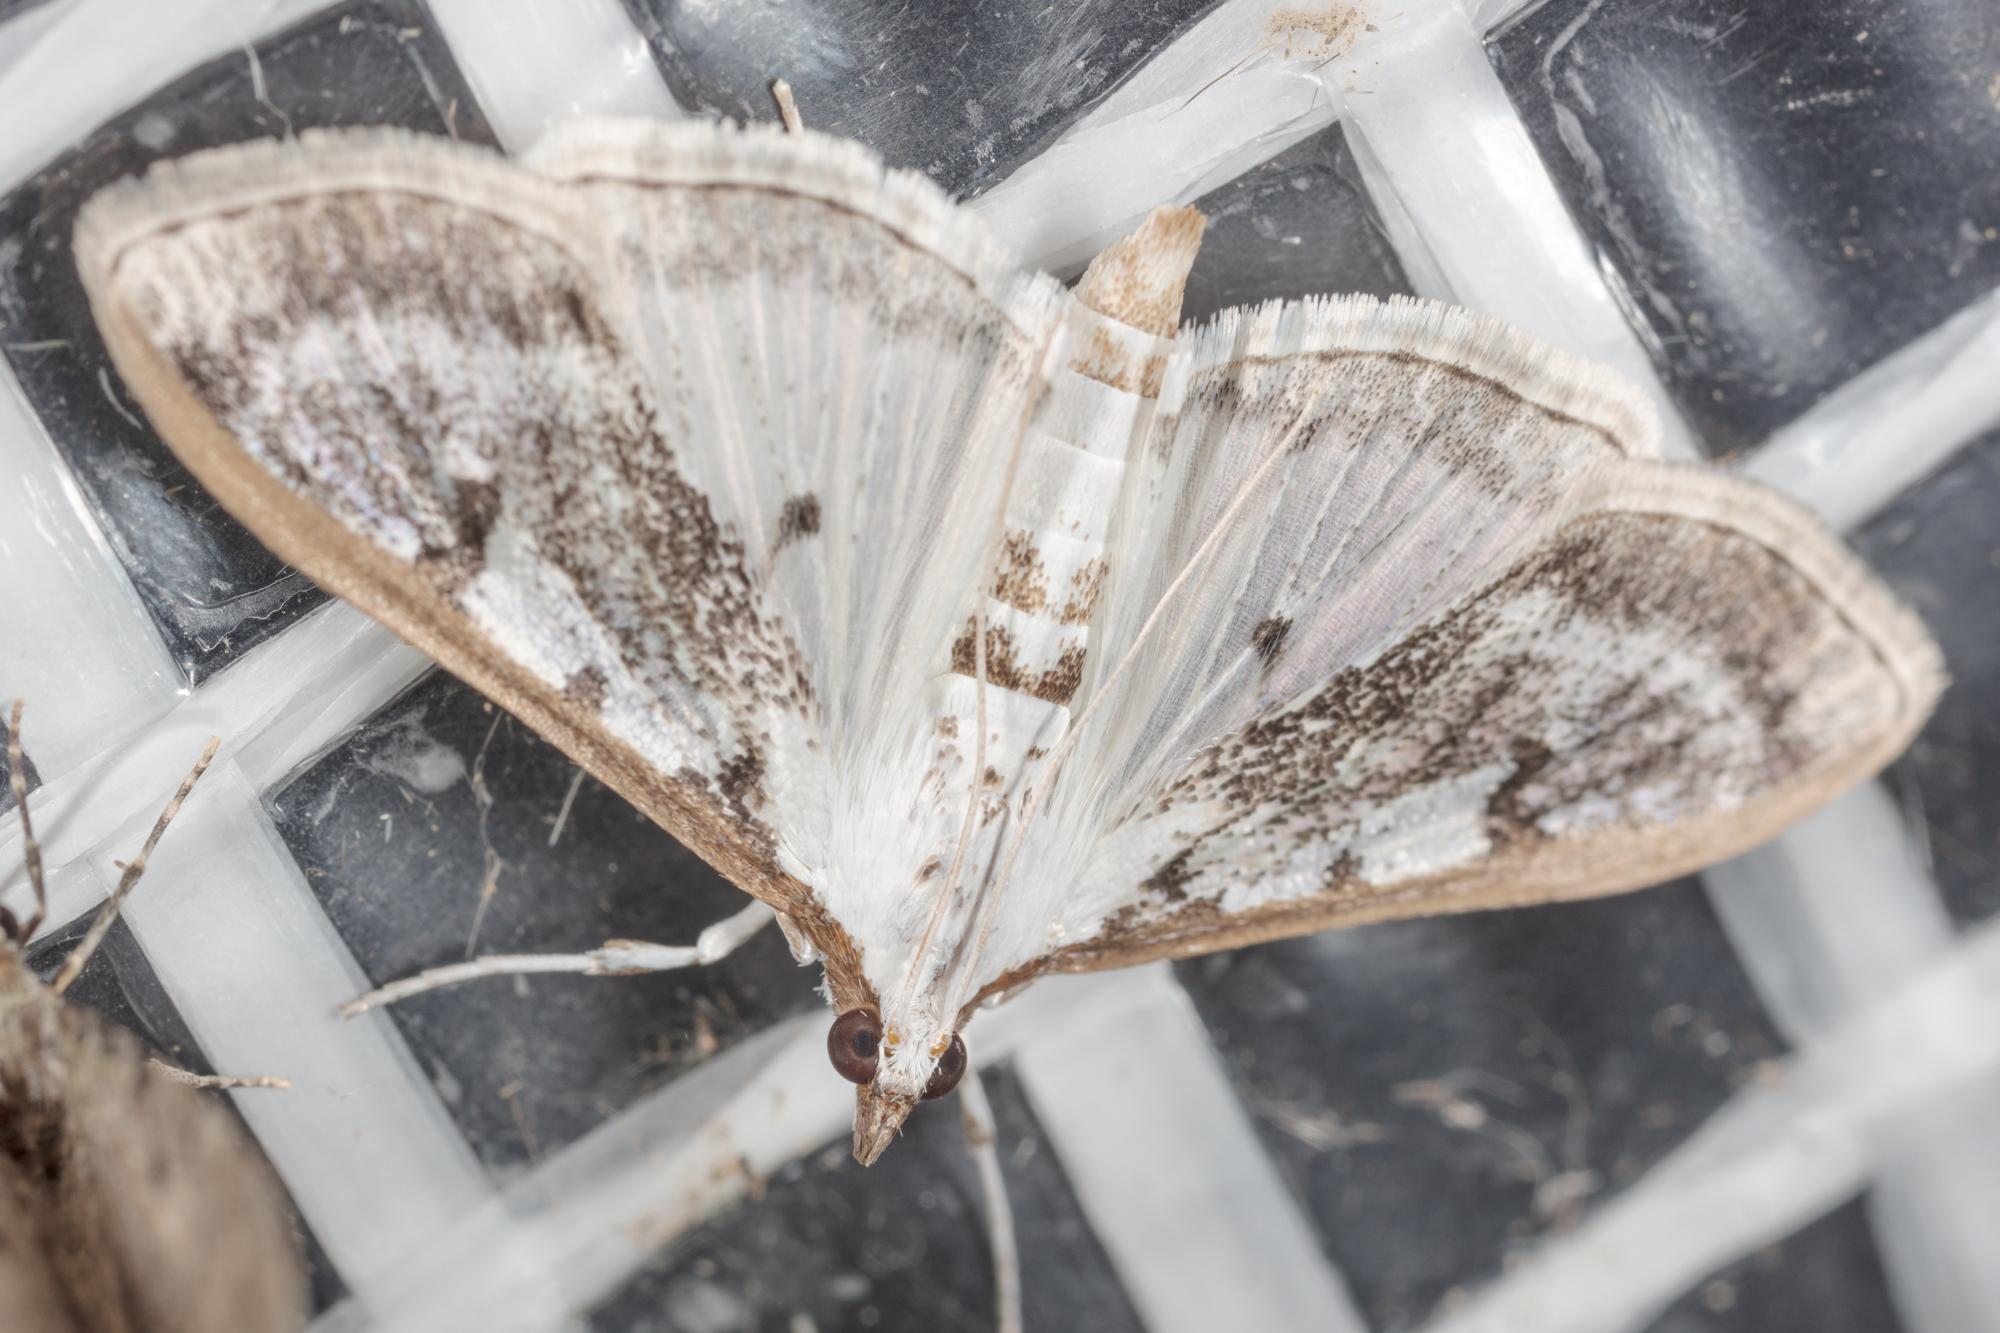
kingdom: Animalia
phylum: Arthropoda
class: Insecta
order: Lepidoptera
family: Crambidae
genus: Palpita
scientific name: Palpita gracilalis
